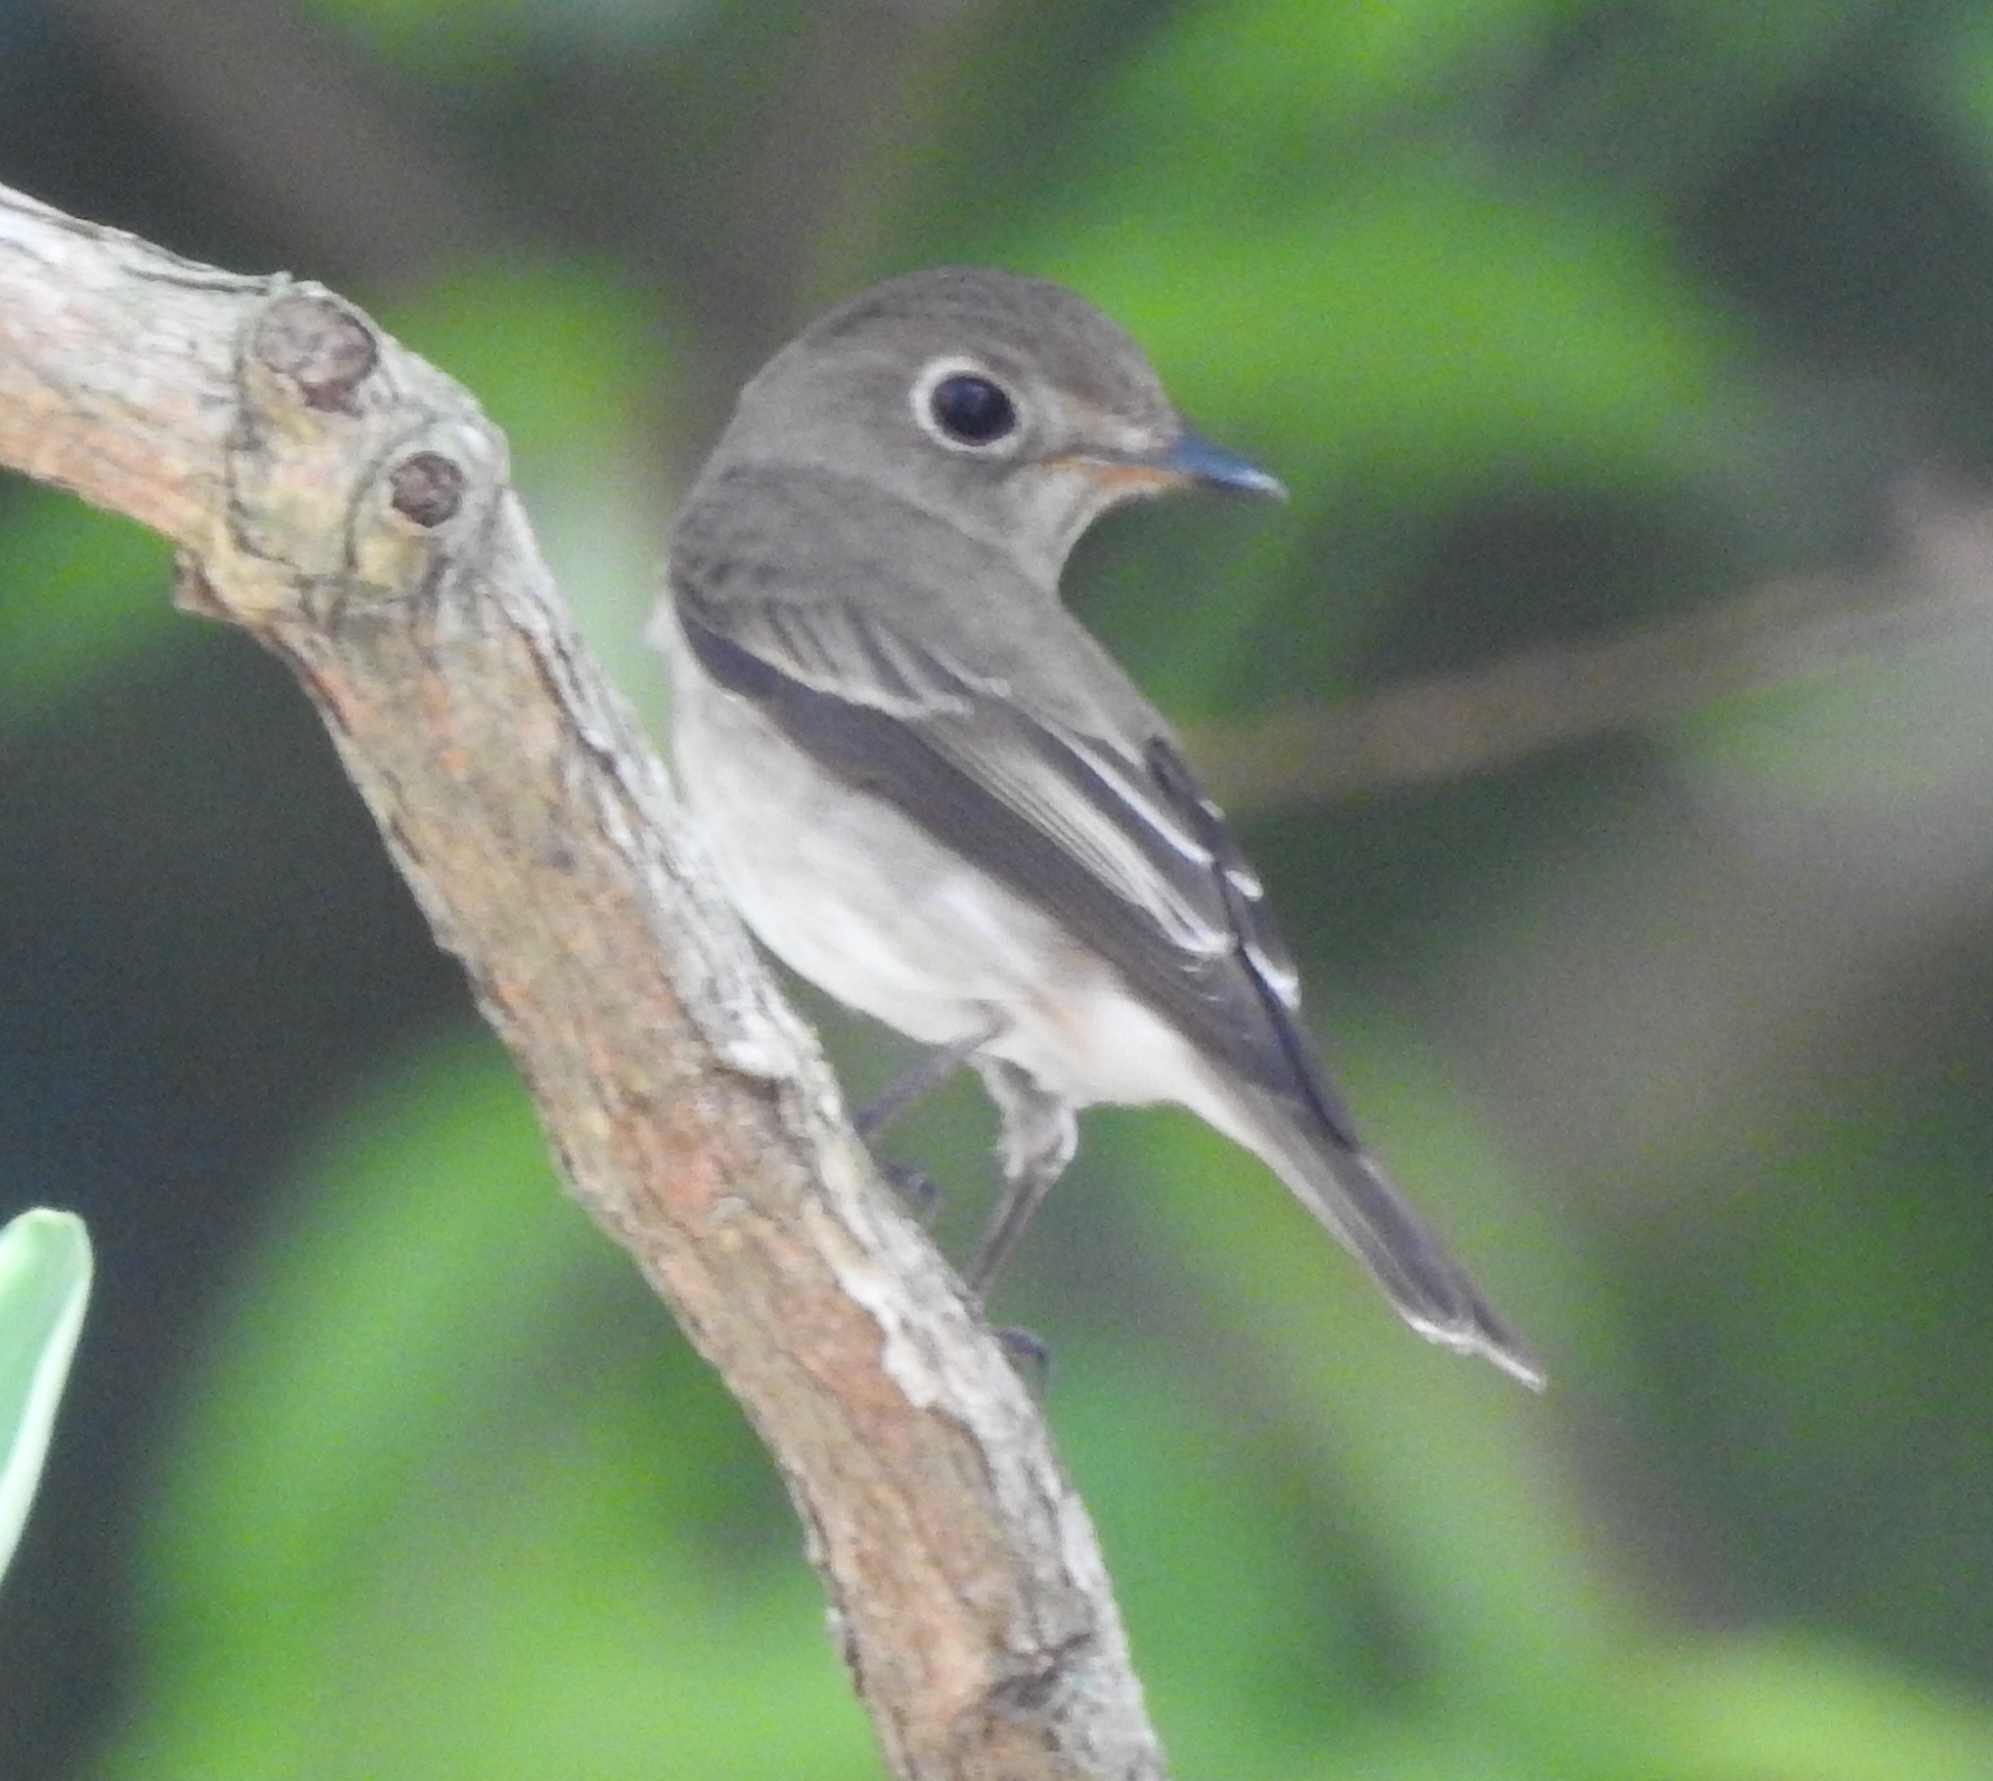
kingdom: Animalia
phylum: Chordata
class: Aves
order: Passeriformes
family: Muscicapidae
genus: Muscicapa
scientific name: Muscicapa latirostris
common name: Asian brown flycatcher
